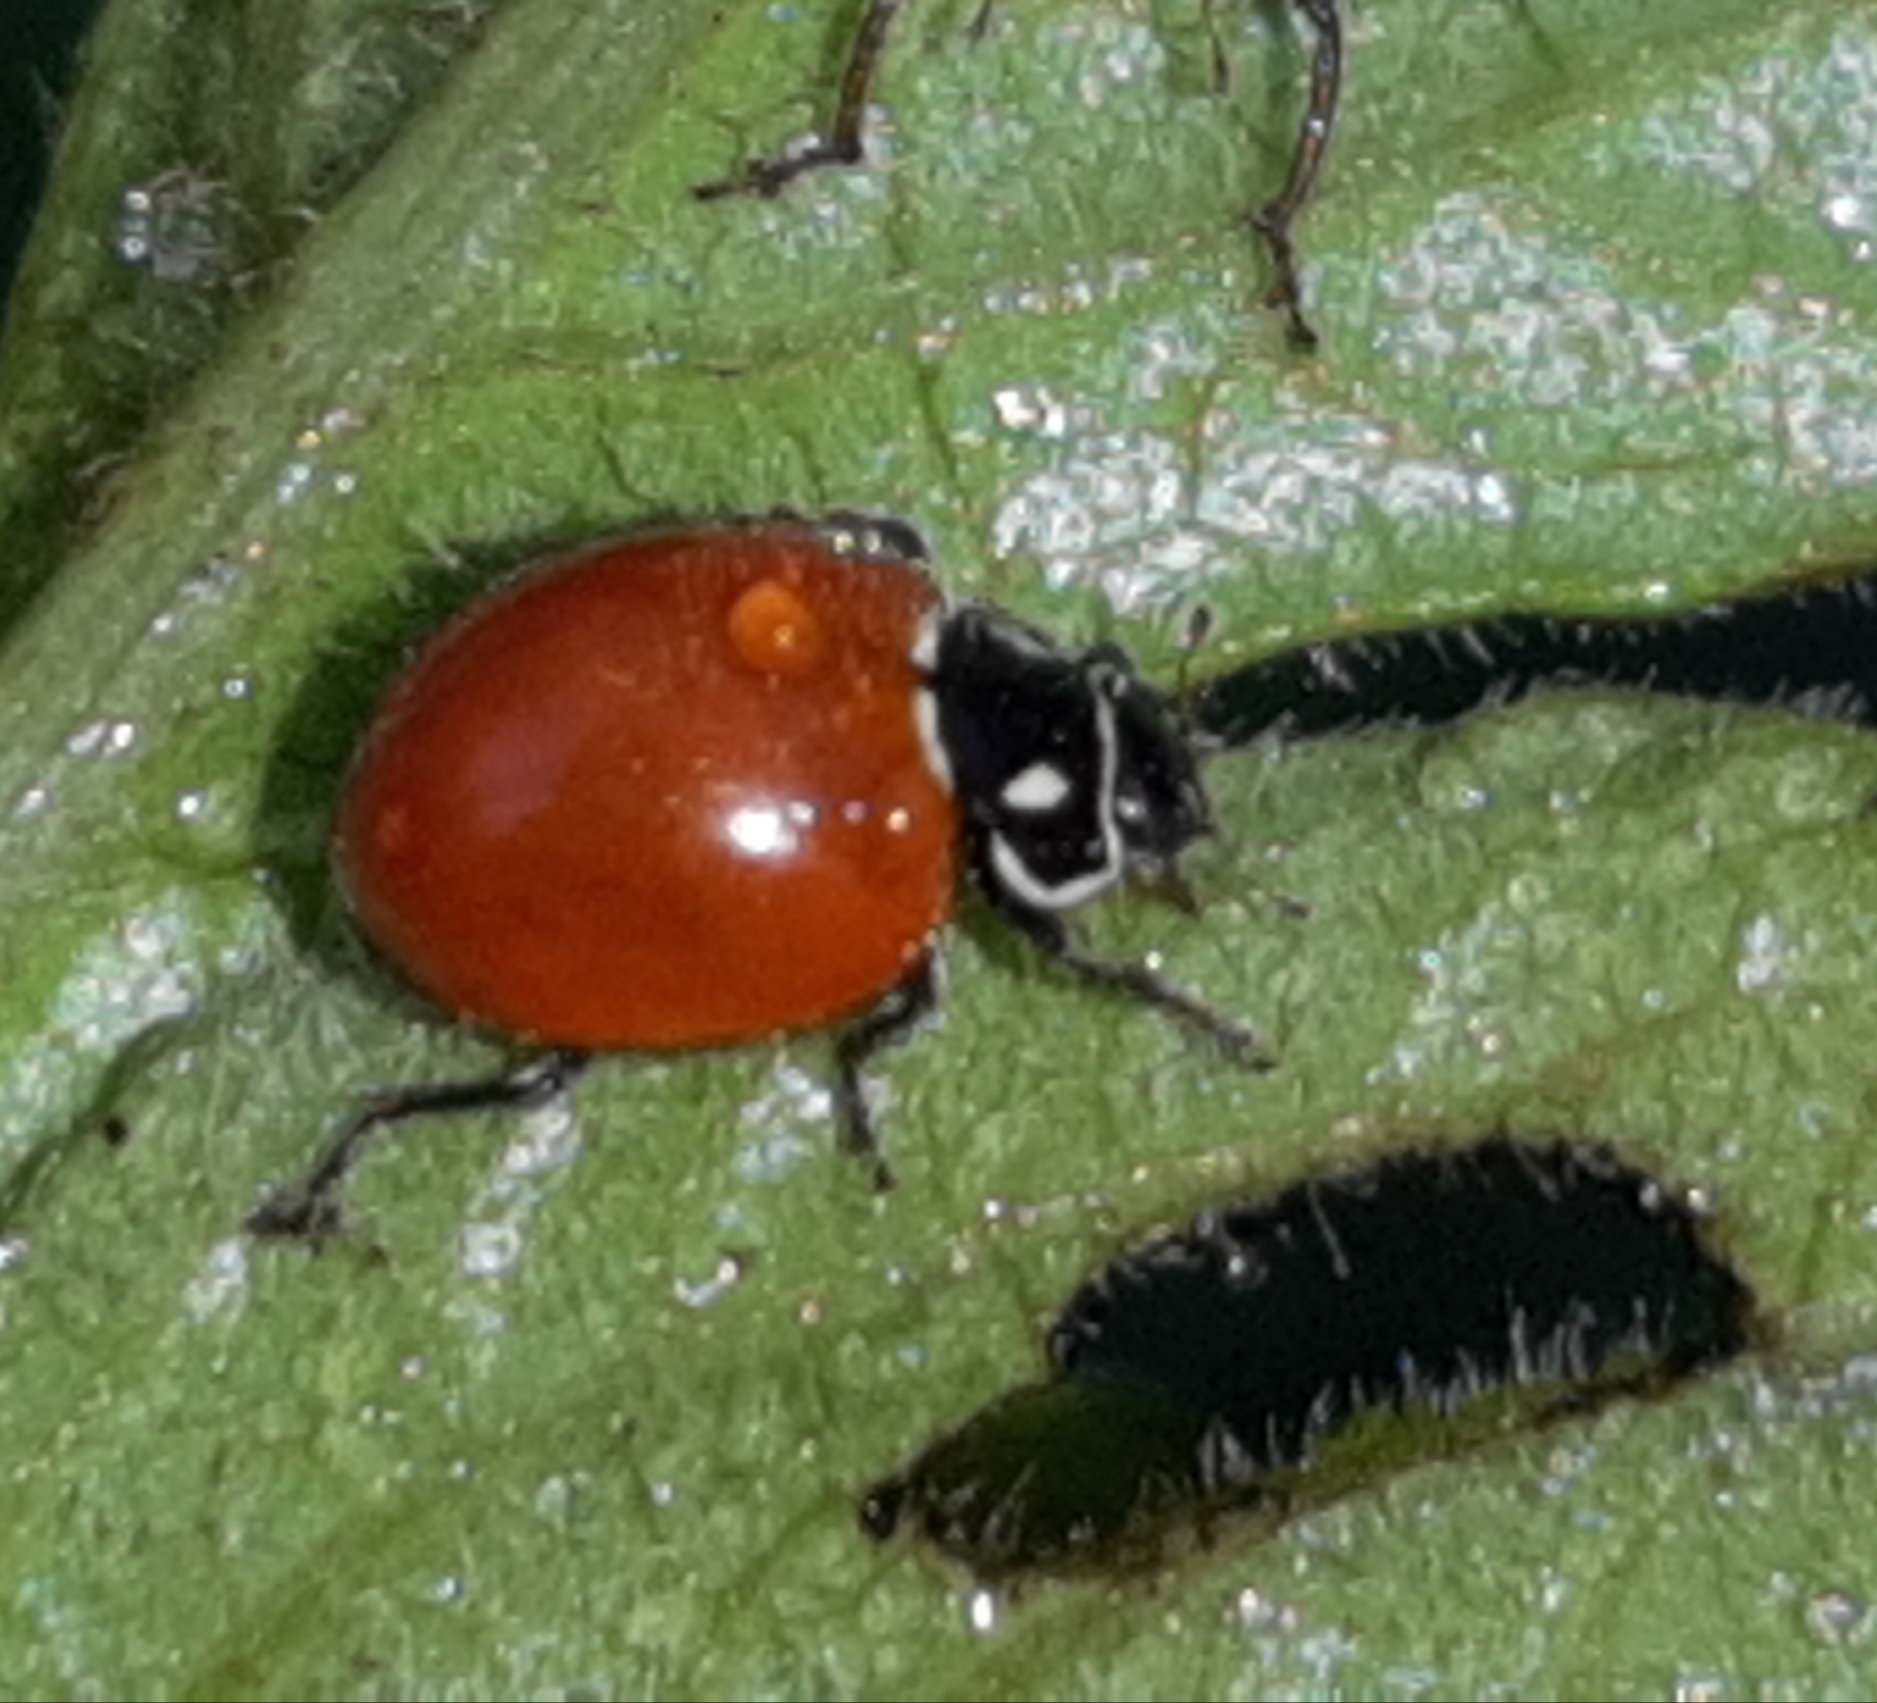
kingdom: Animalia
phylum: Arthropoda
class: Insecta
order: Coleoptera
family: Coccinellidae
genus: Cycloneda
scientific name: Cycloneda emarginata
